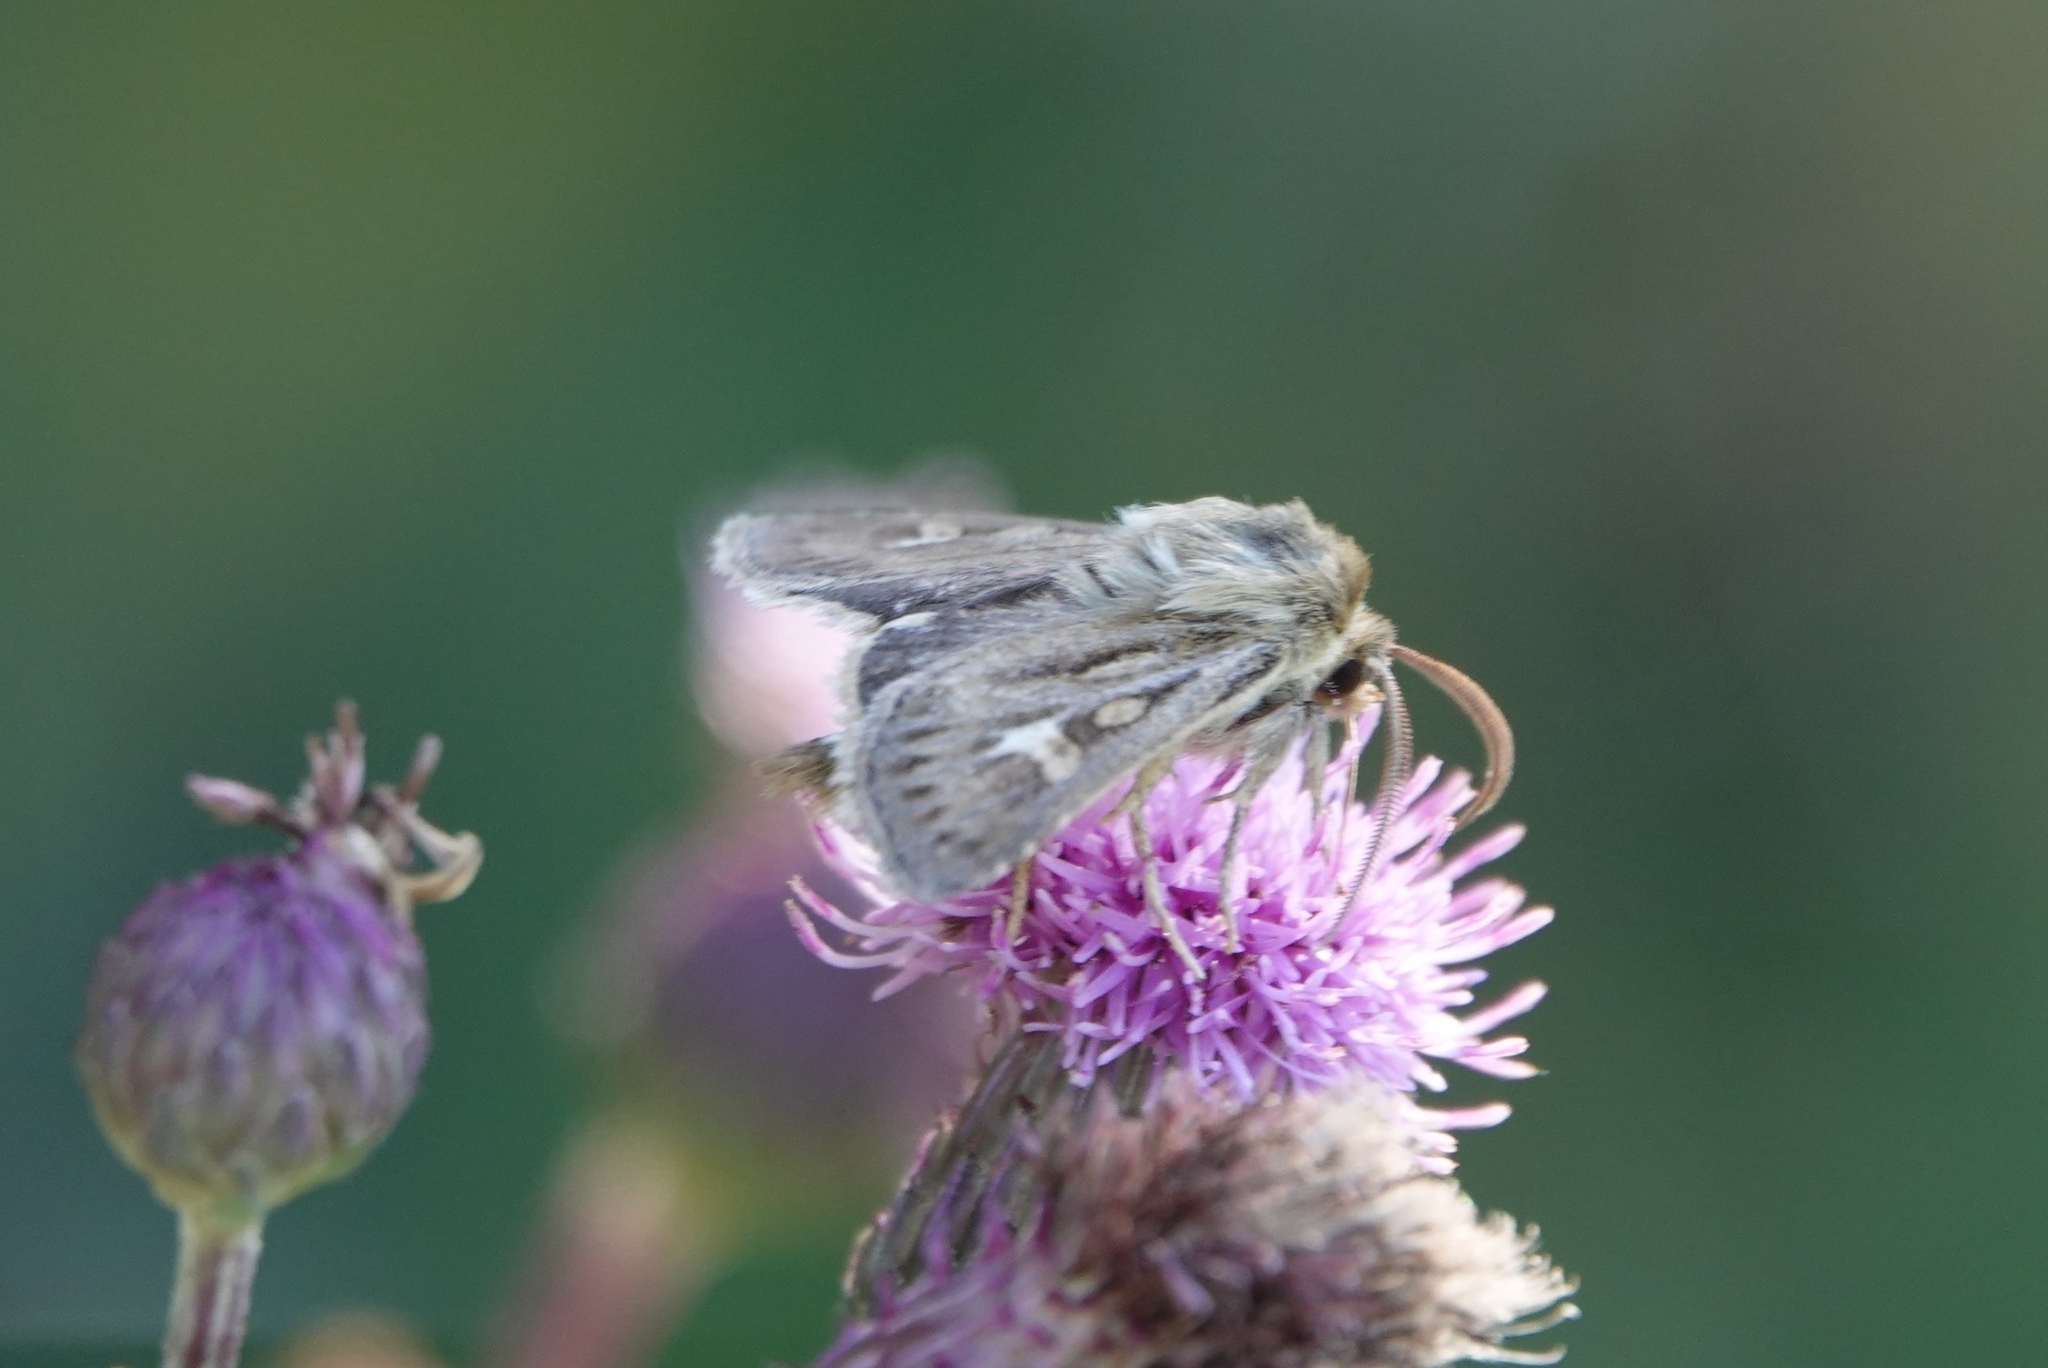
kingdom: Animalia
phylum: Arthropoda
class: Insecta
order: Lepidoptera
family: Noctuidae
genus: Cerapteryx
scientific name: Cerapteryx graminis
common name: Antler moth
